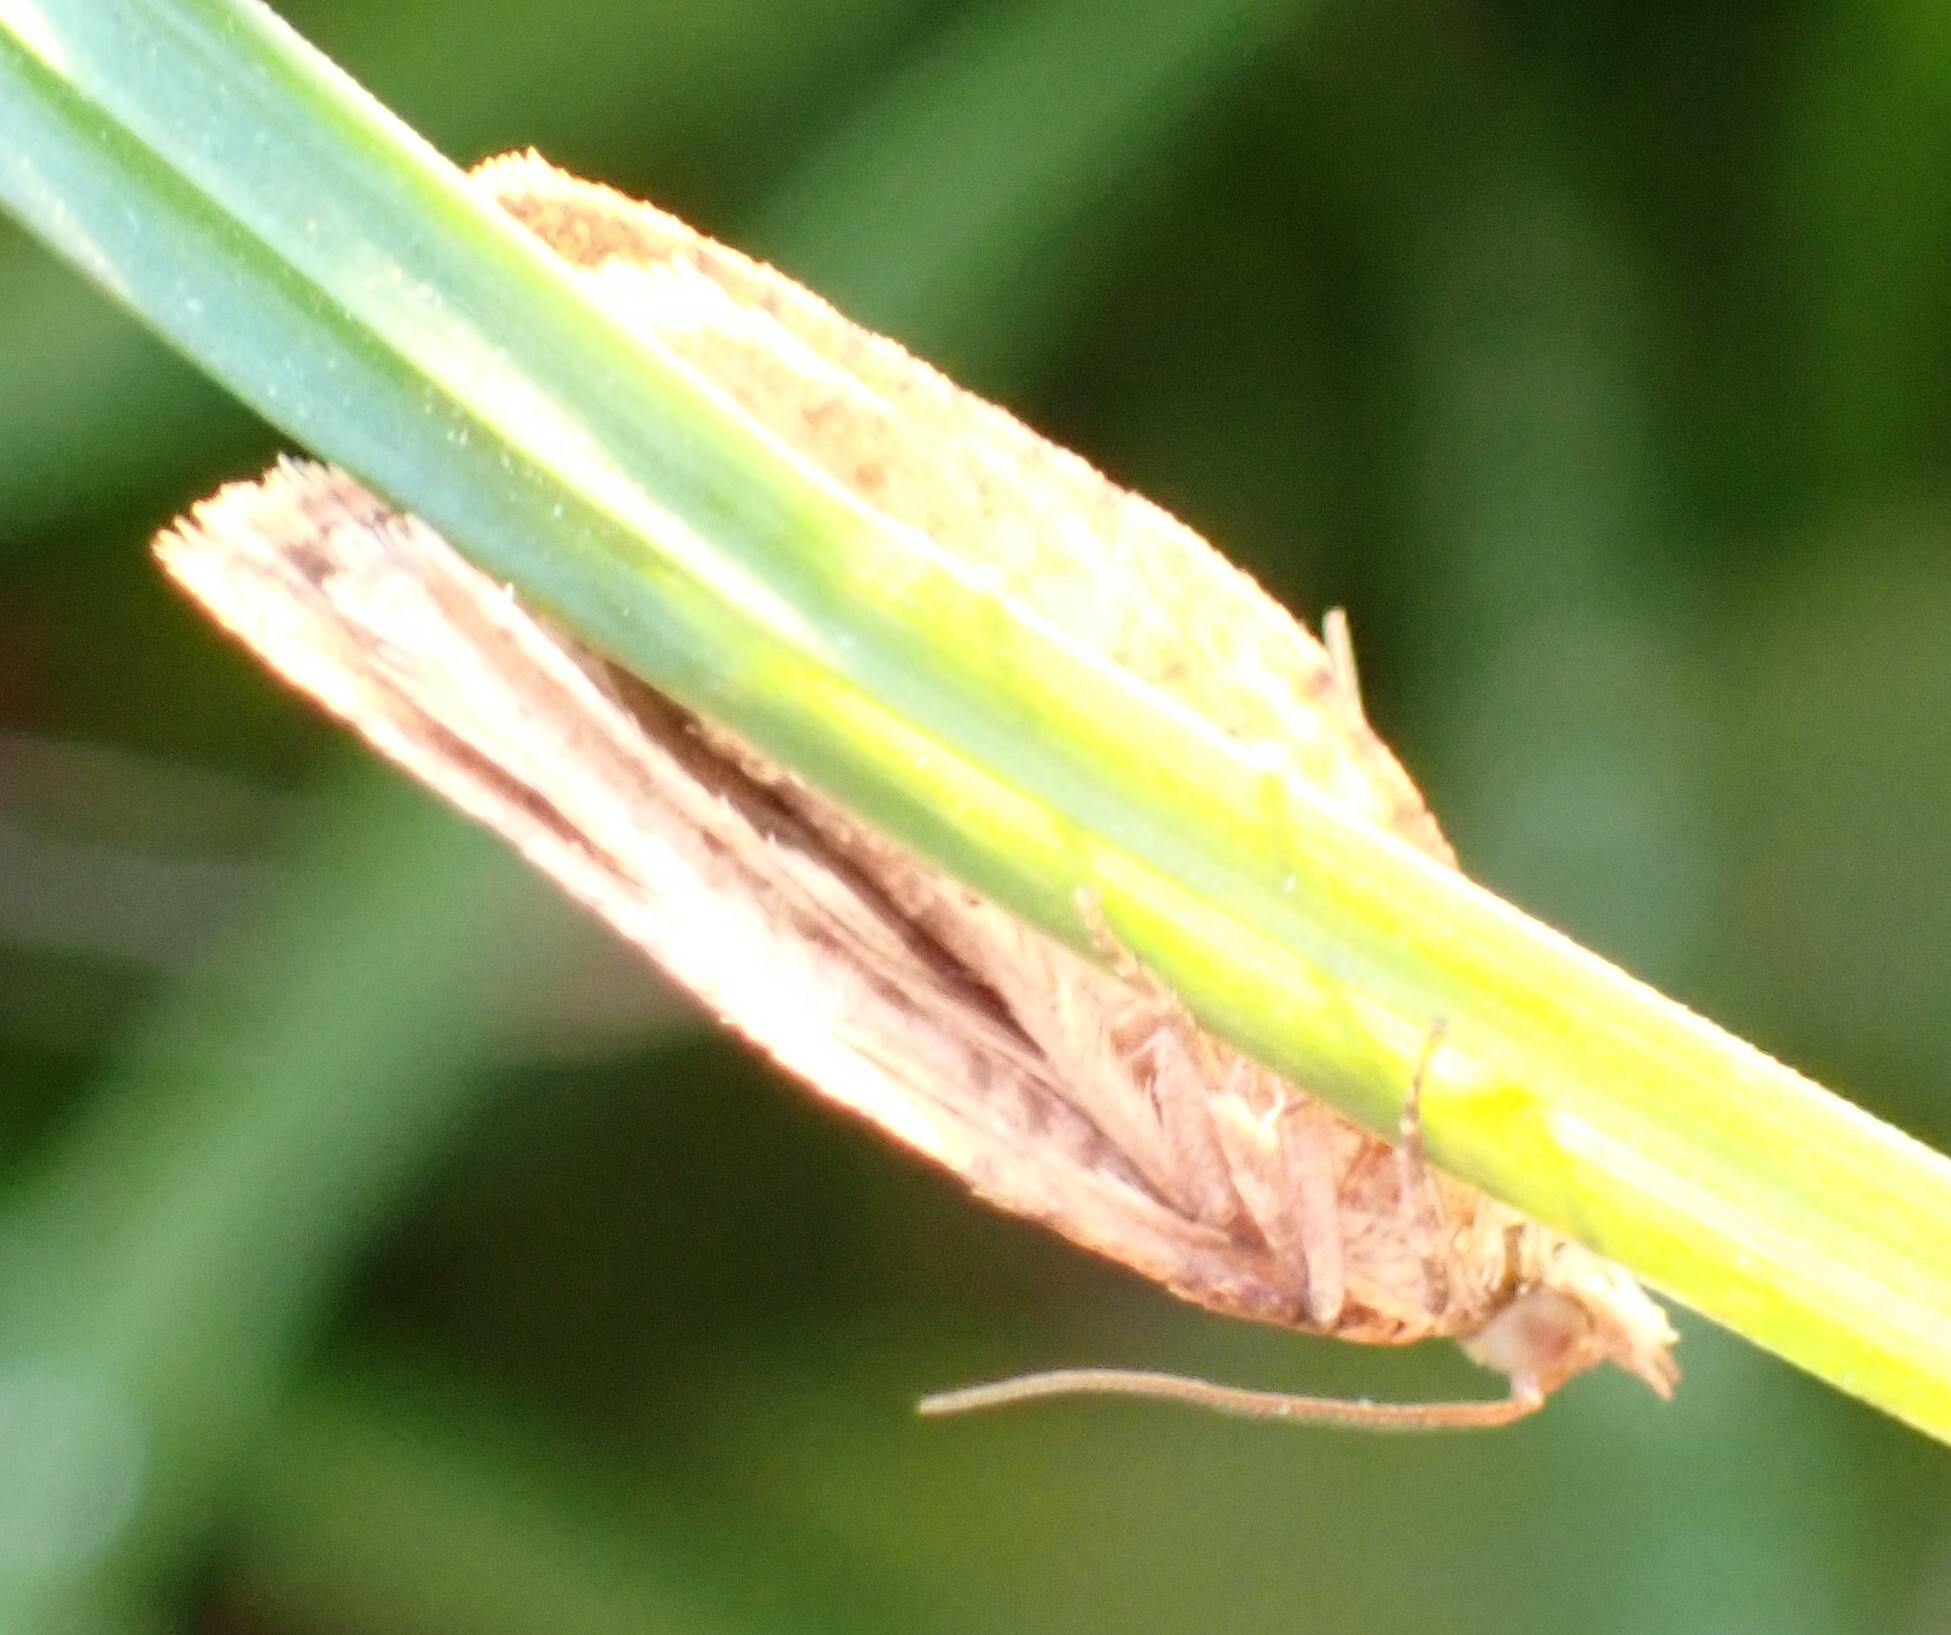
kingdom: Animalia
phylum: Arthropoda
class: Insecta
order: Lepidoptera
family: Tortricidae
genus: Epiphyas
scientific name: Epiphyas postvittana
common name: Light brown apple moth
